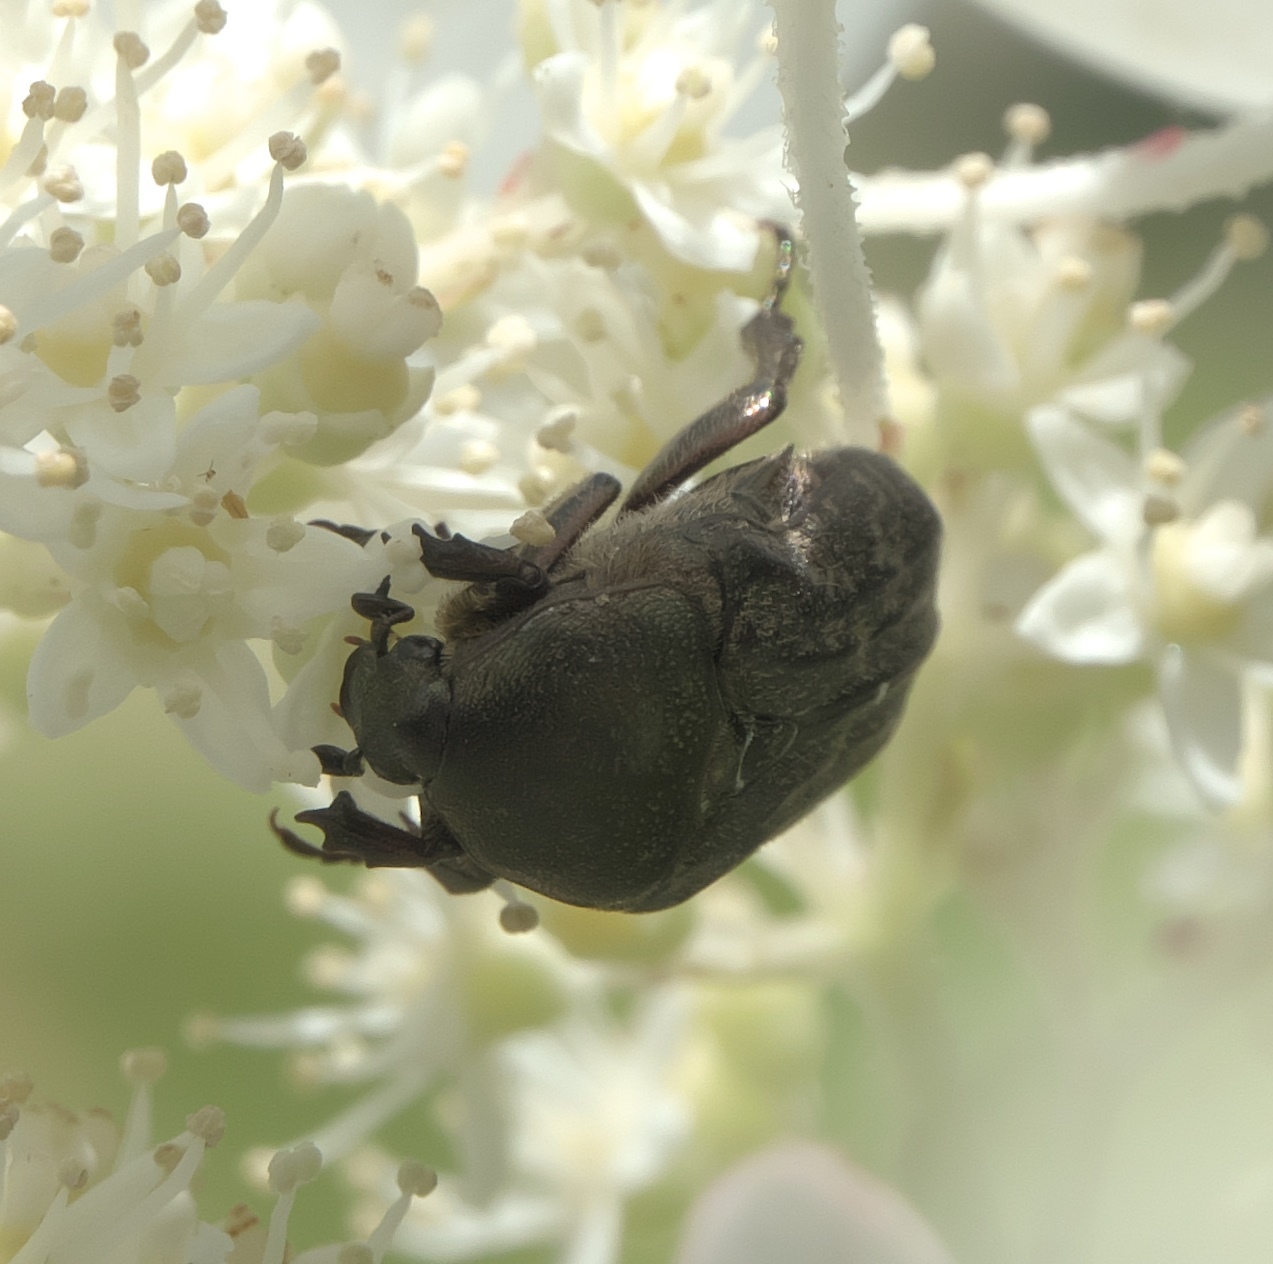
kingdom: Animalia
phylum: Arthropoda
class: Insecta
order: Coleoptera
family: Scarabaeidae
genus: Euphoria
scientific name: Euphoria sepulcralis
